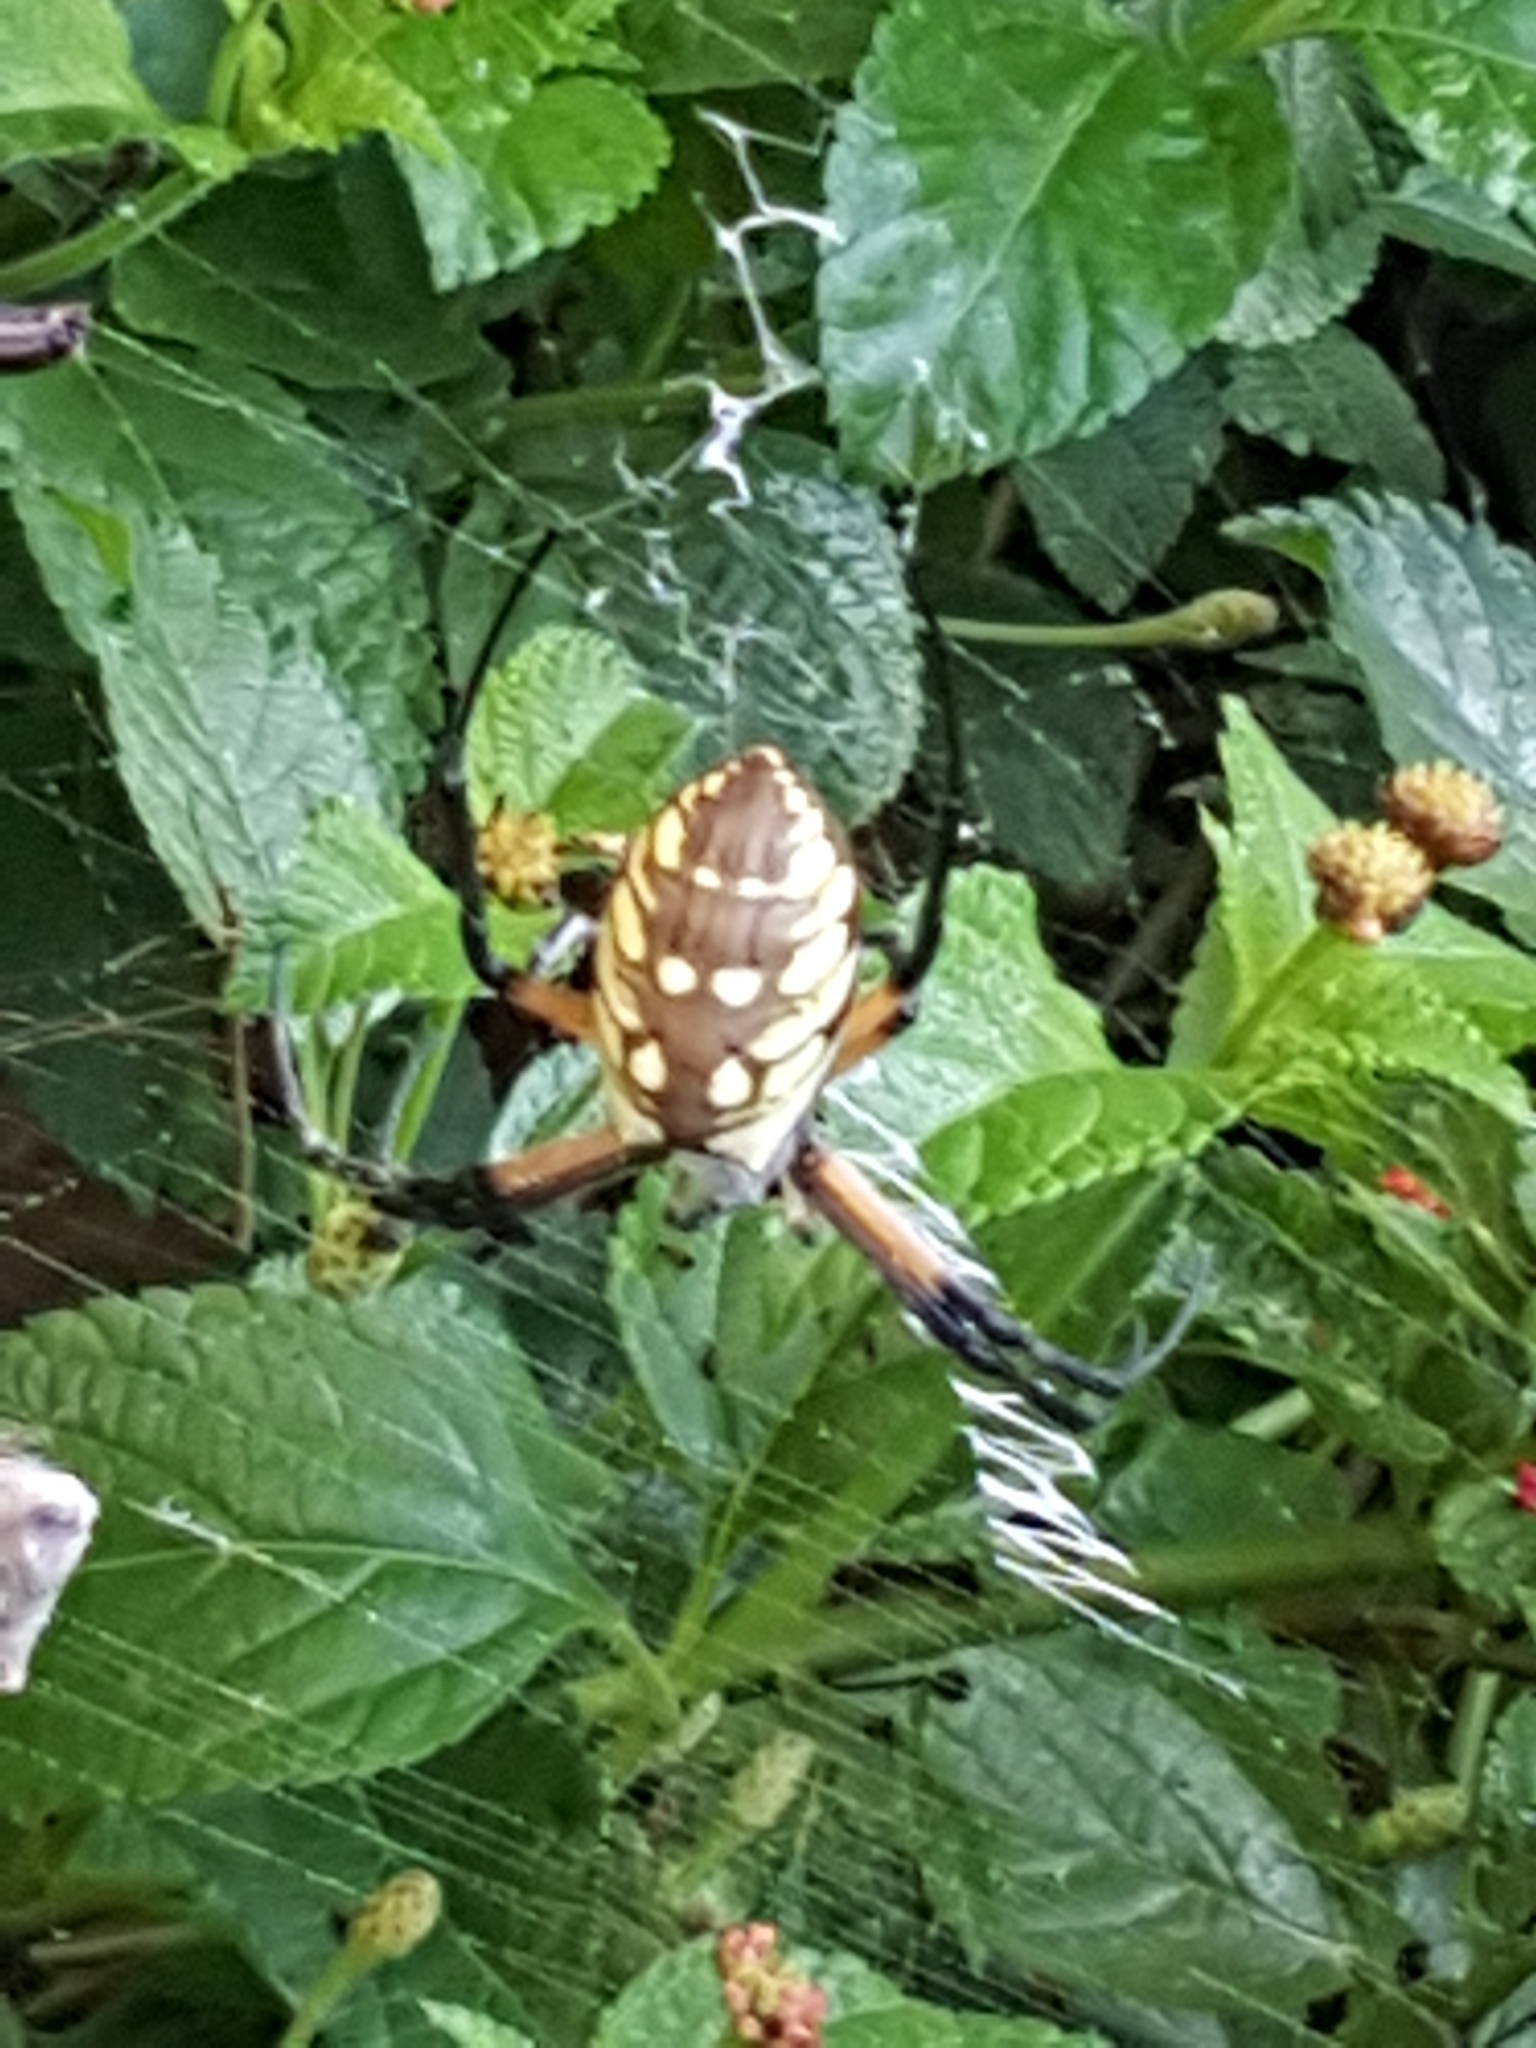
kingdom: Animalia
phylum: Arthropoda
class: Arachnida
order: Araneae
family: Araneidae
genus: Argiope
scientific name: Argiope aurantia
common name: Orb weavers
